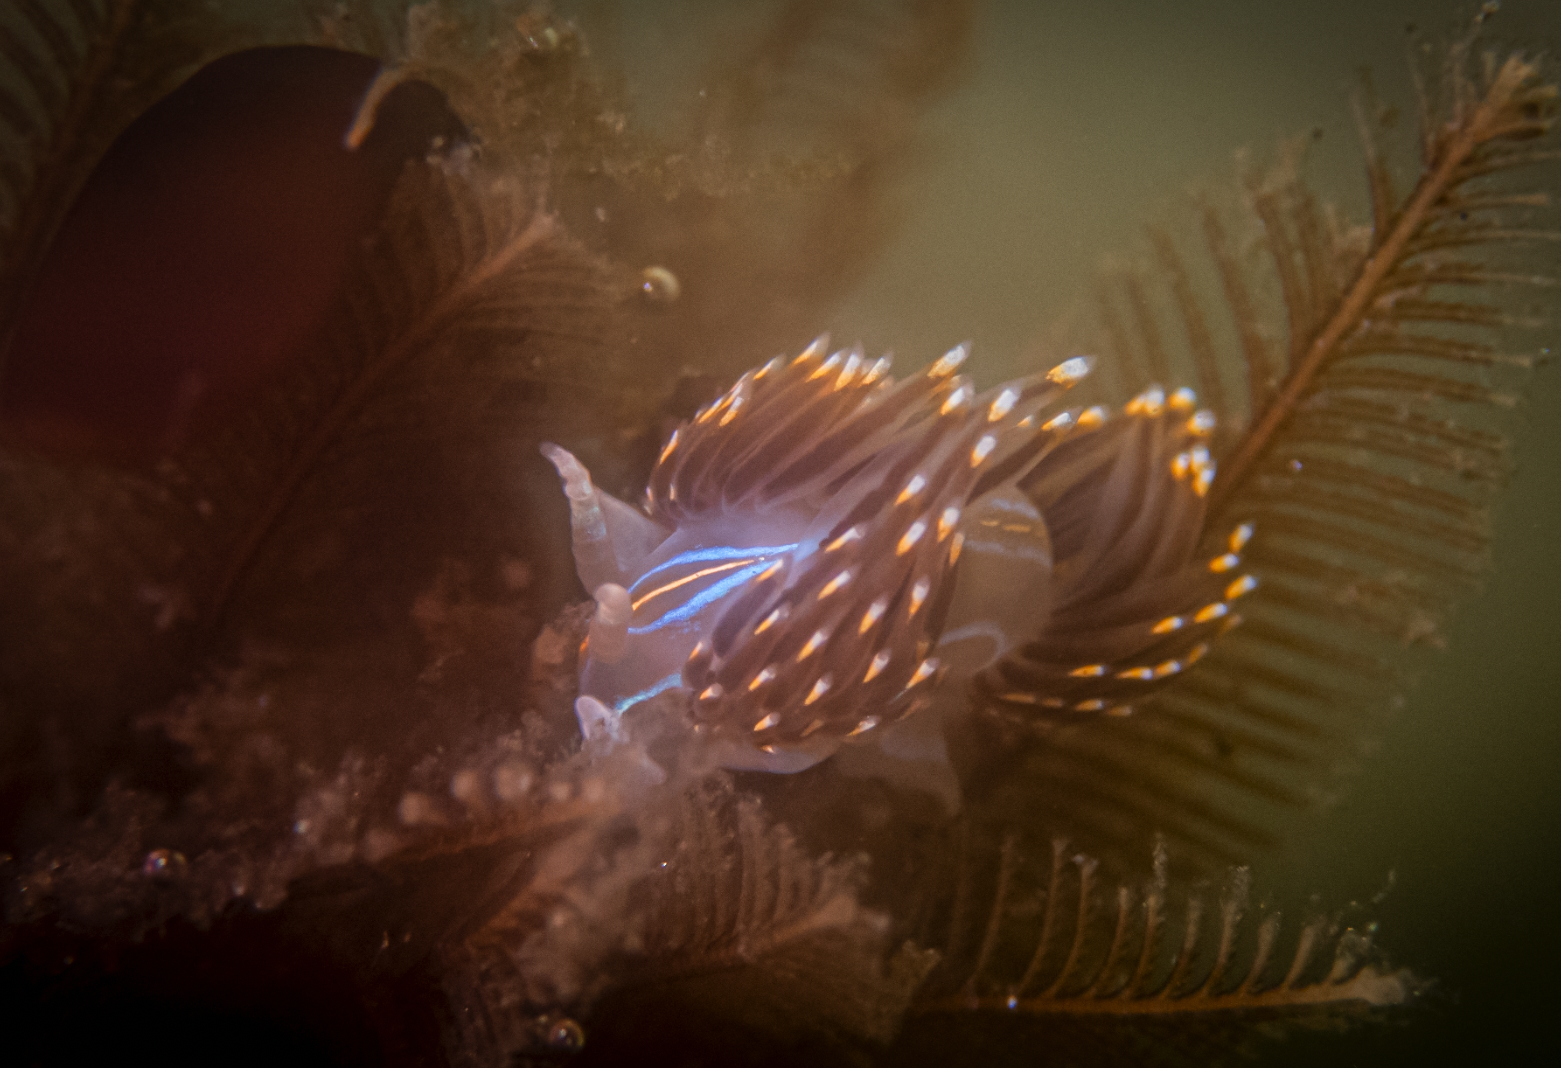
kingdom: Animalia
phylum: Mollusca
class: Gastropoda
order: Nudibranchia
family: Myrrhinidae
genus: Hermissenda
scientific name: Hermissenda opalescens
